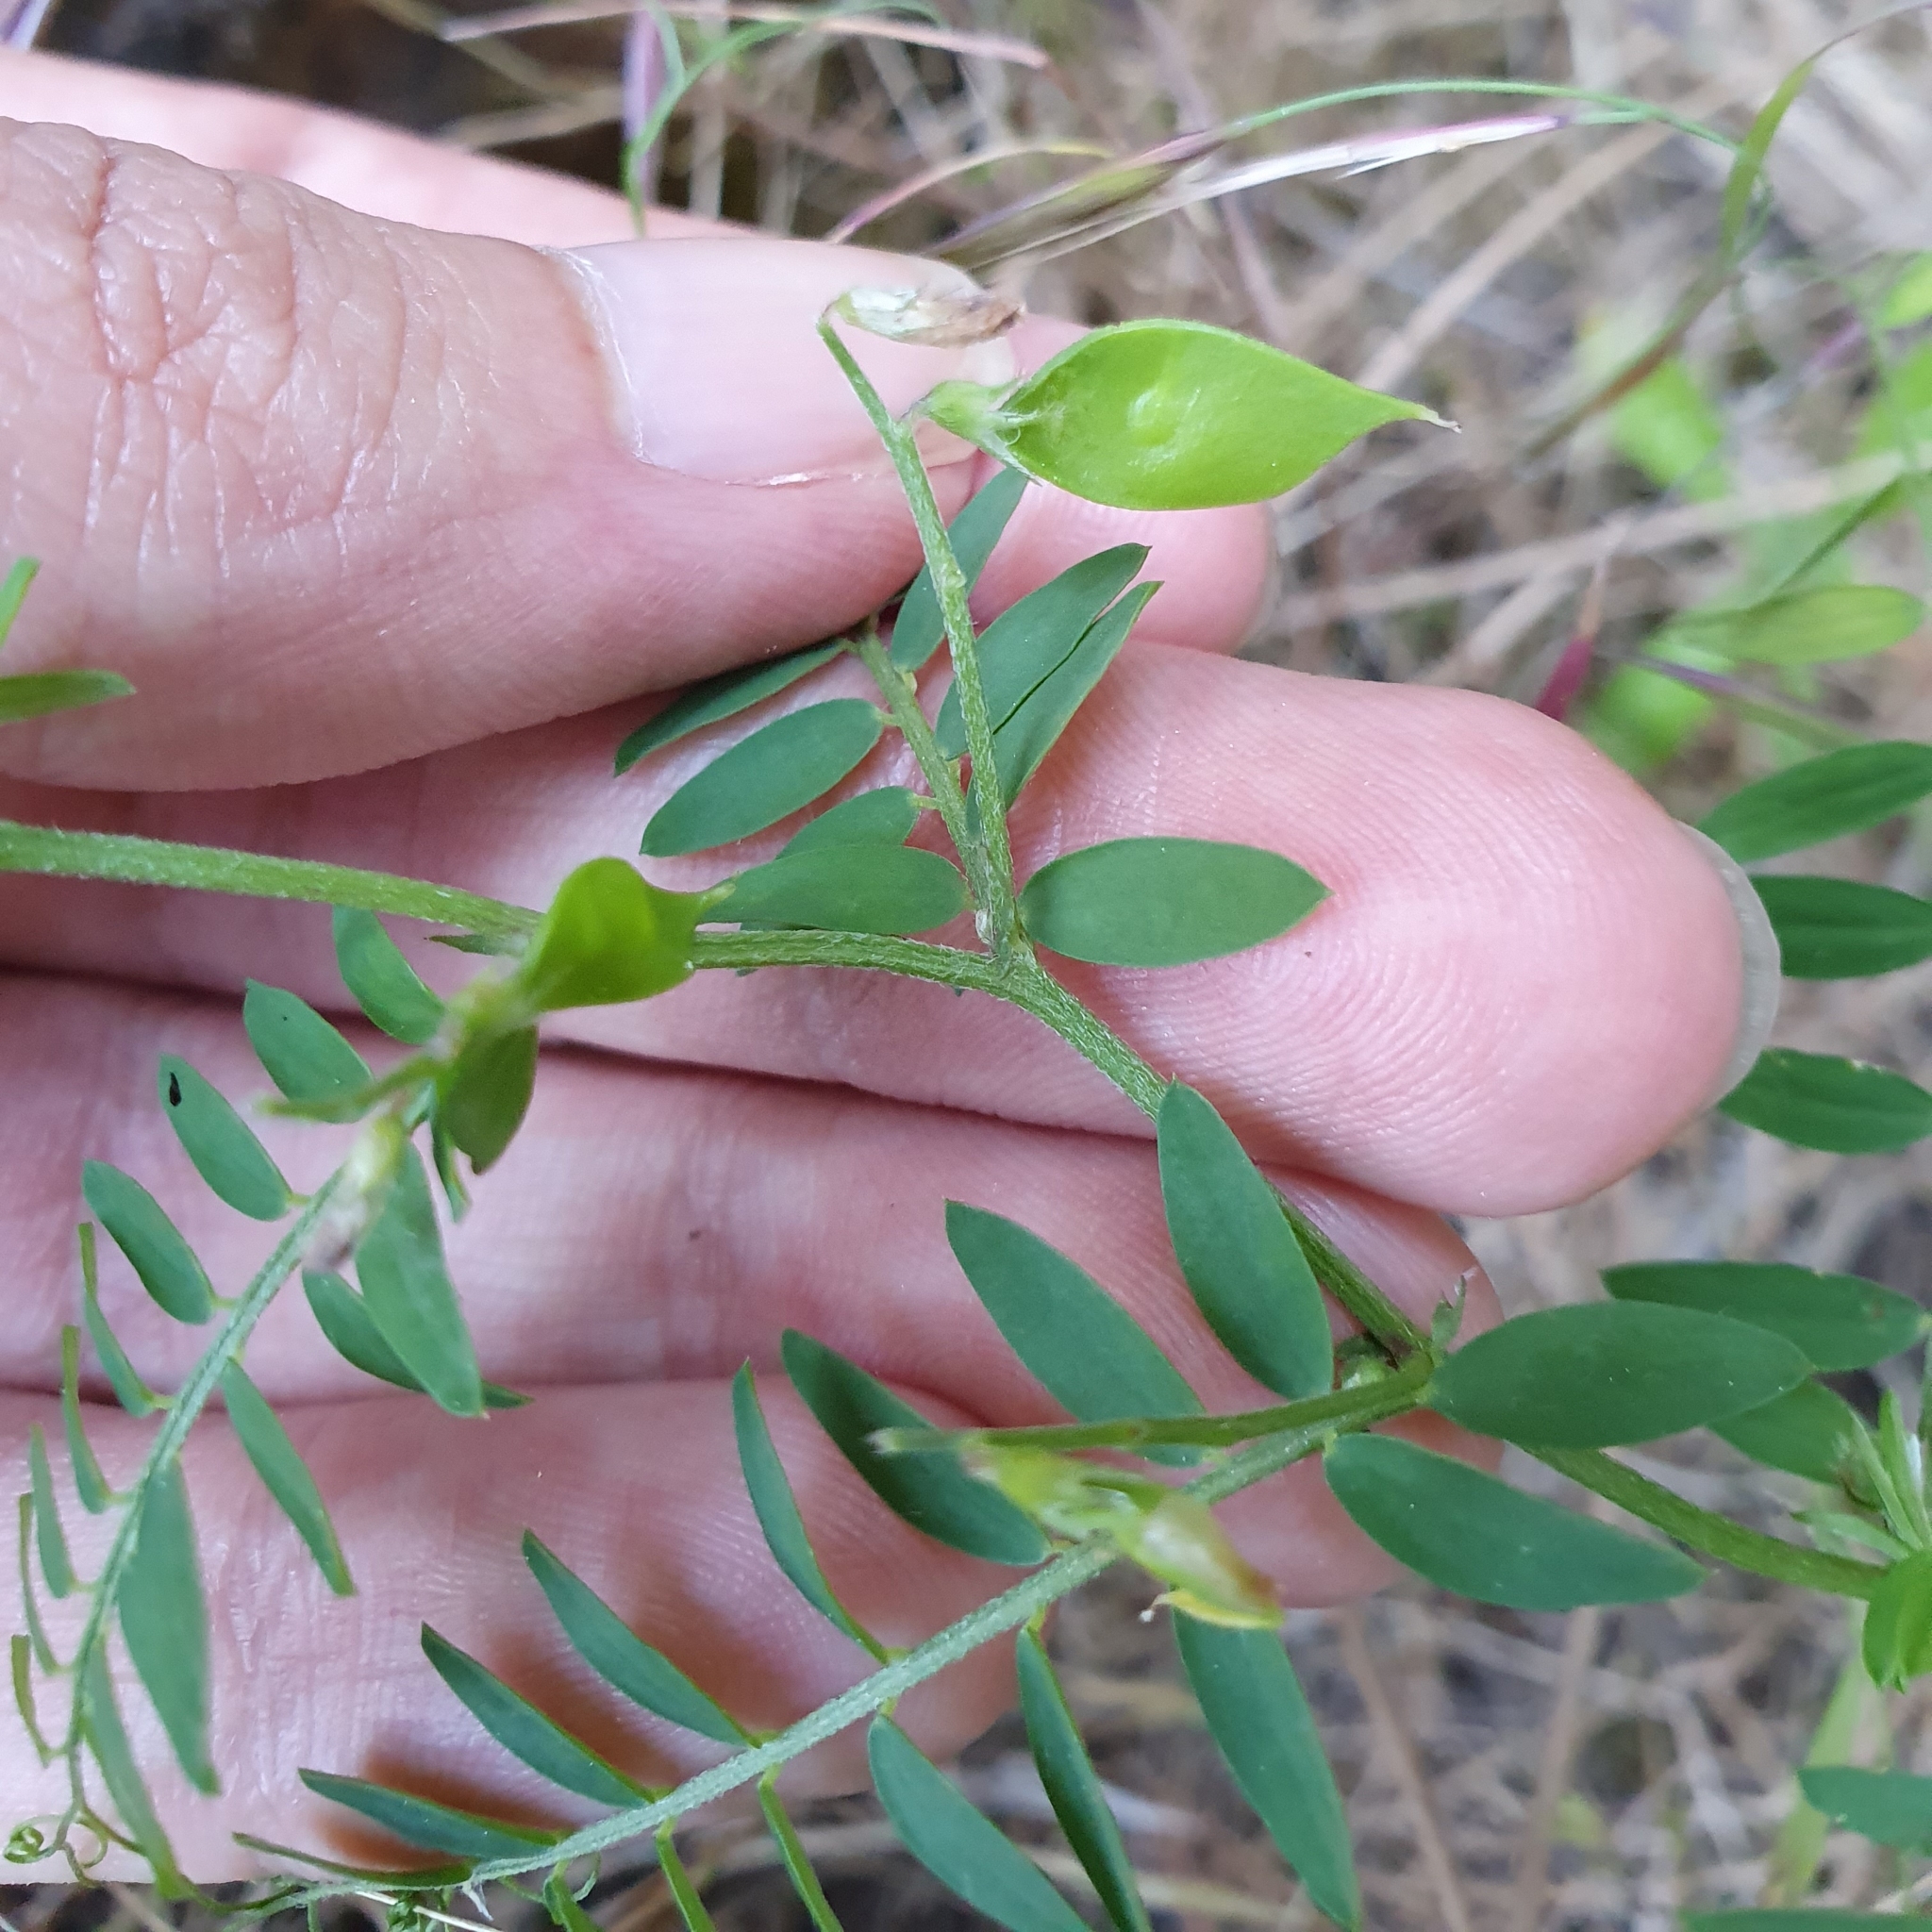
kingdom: Plantae
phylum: Tracheophyta
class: Magnoliopsida
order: Fabales
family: Fabaceae
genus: Vicia
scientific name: Vicia disperma
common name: European vetch
